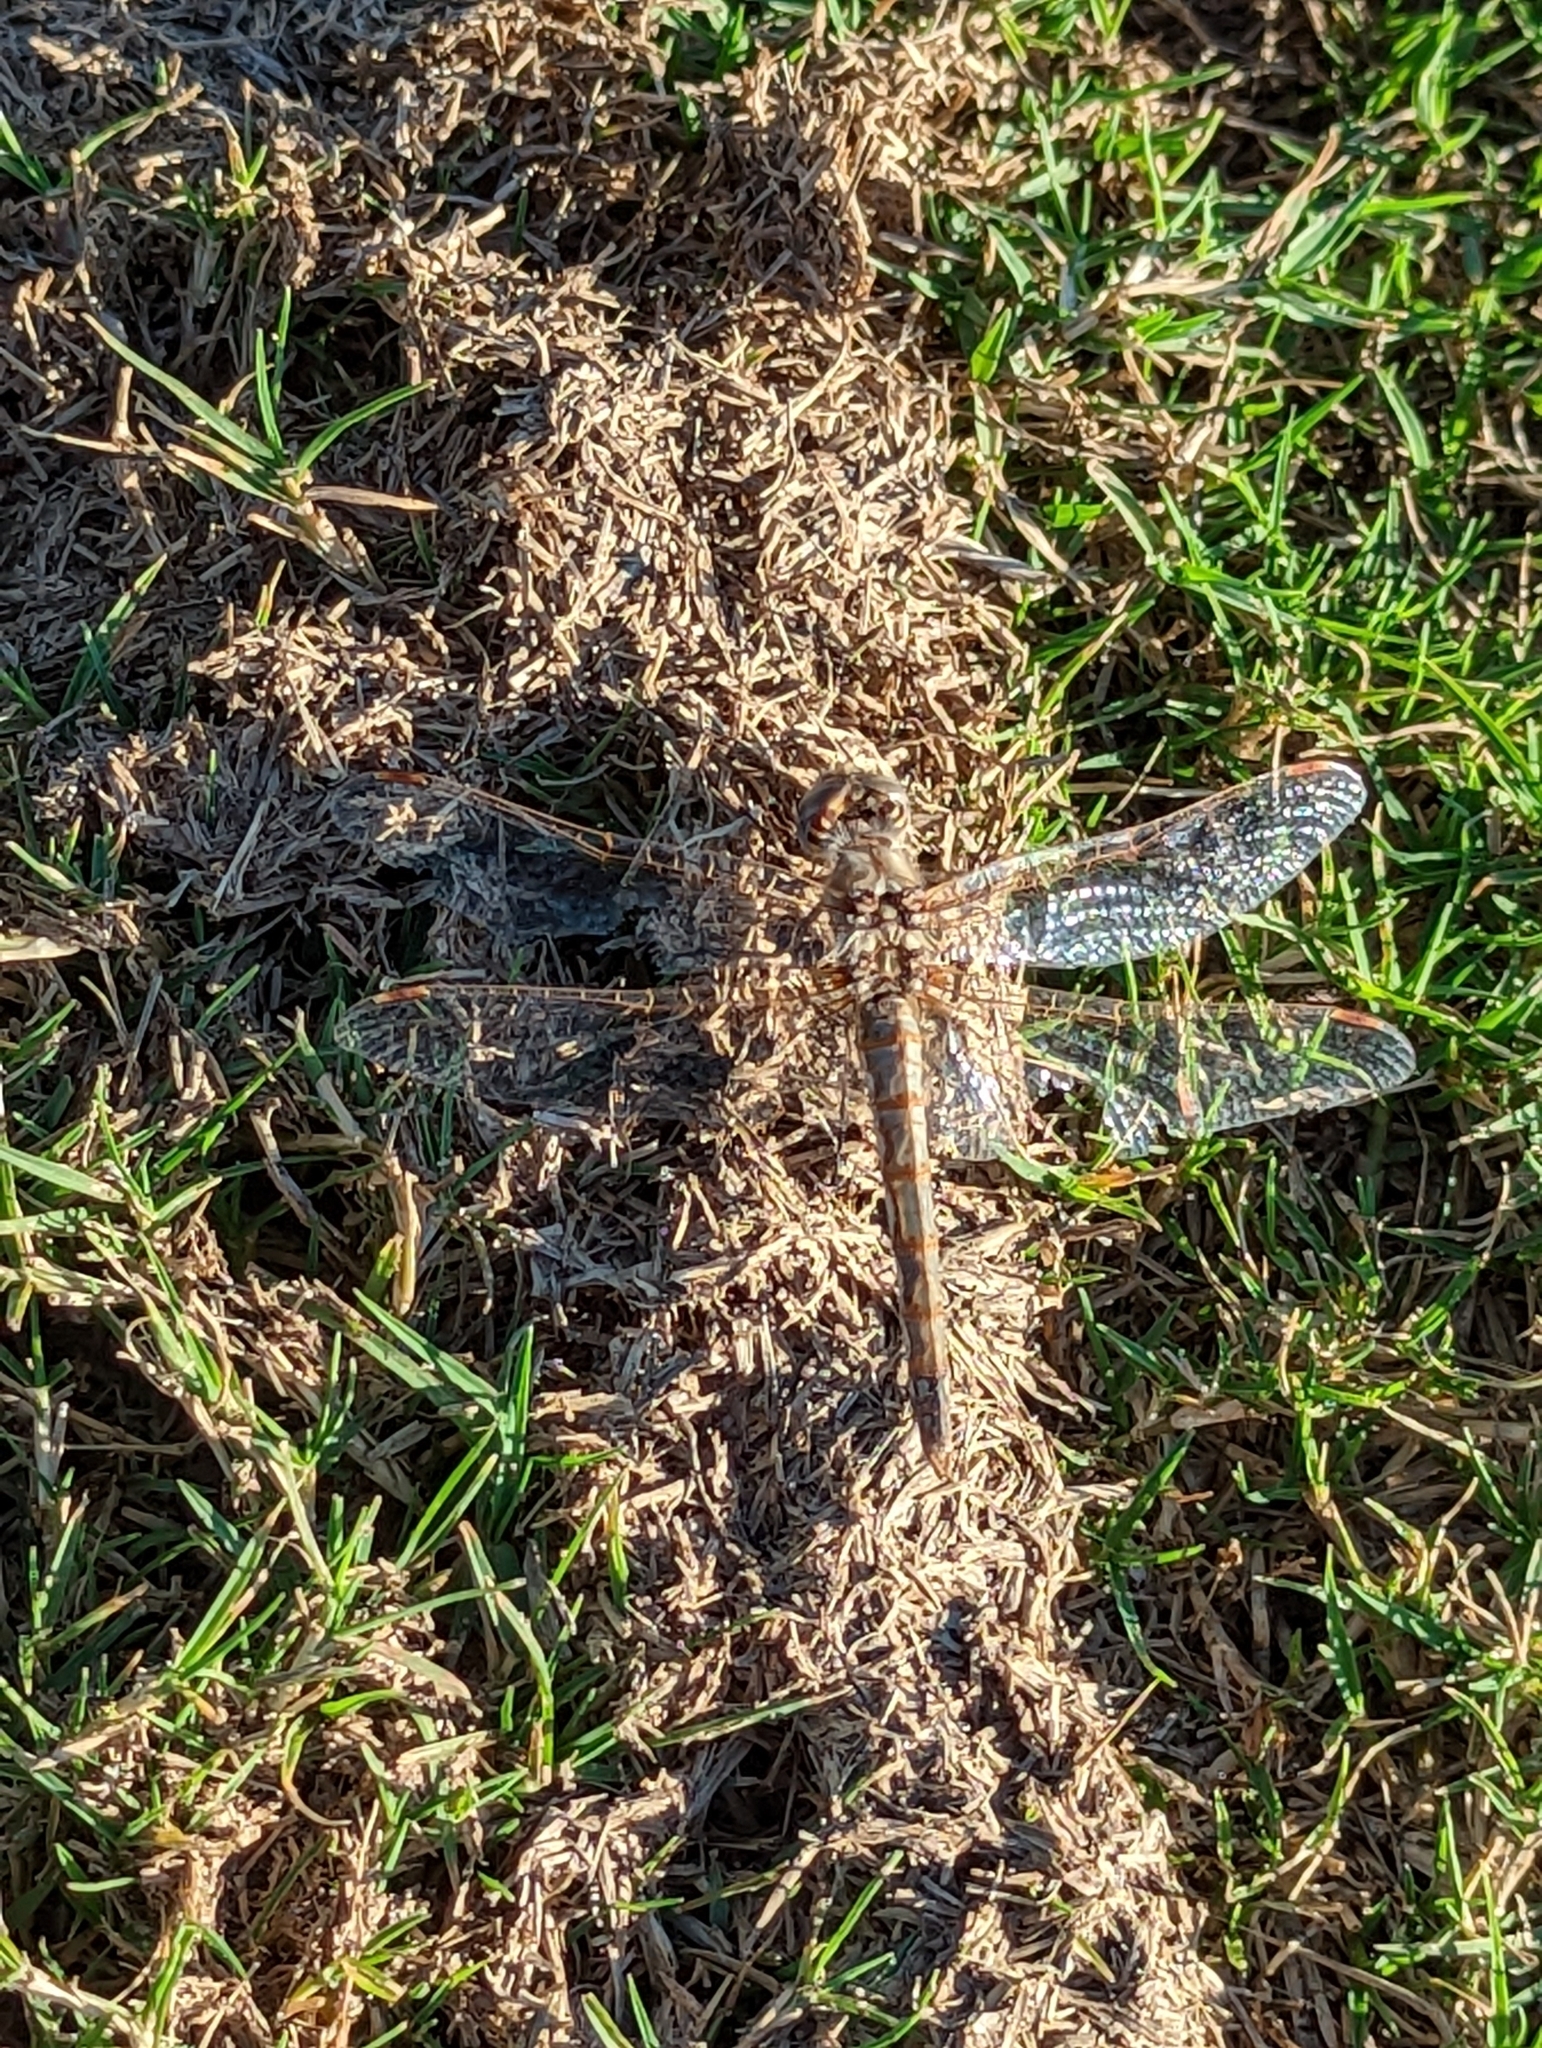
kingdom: Animalia
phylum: Arthropoda
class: Insecta
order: Odonata
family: Libellulidae
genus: Sympetrum
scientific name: Sympetrum corruptum
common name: Variegated meadowhawk
